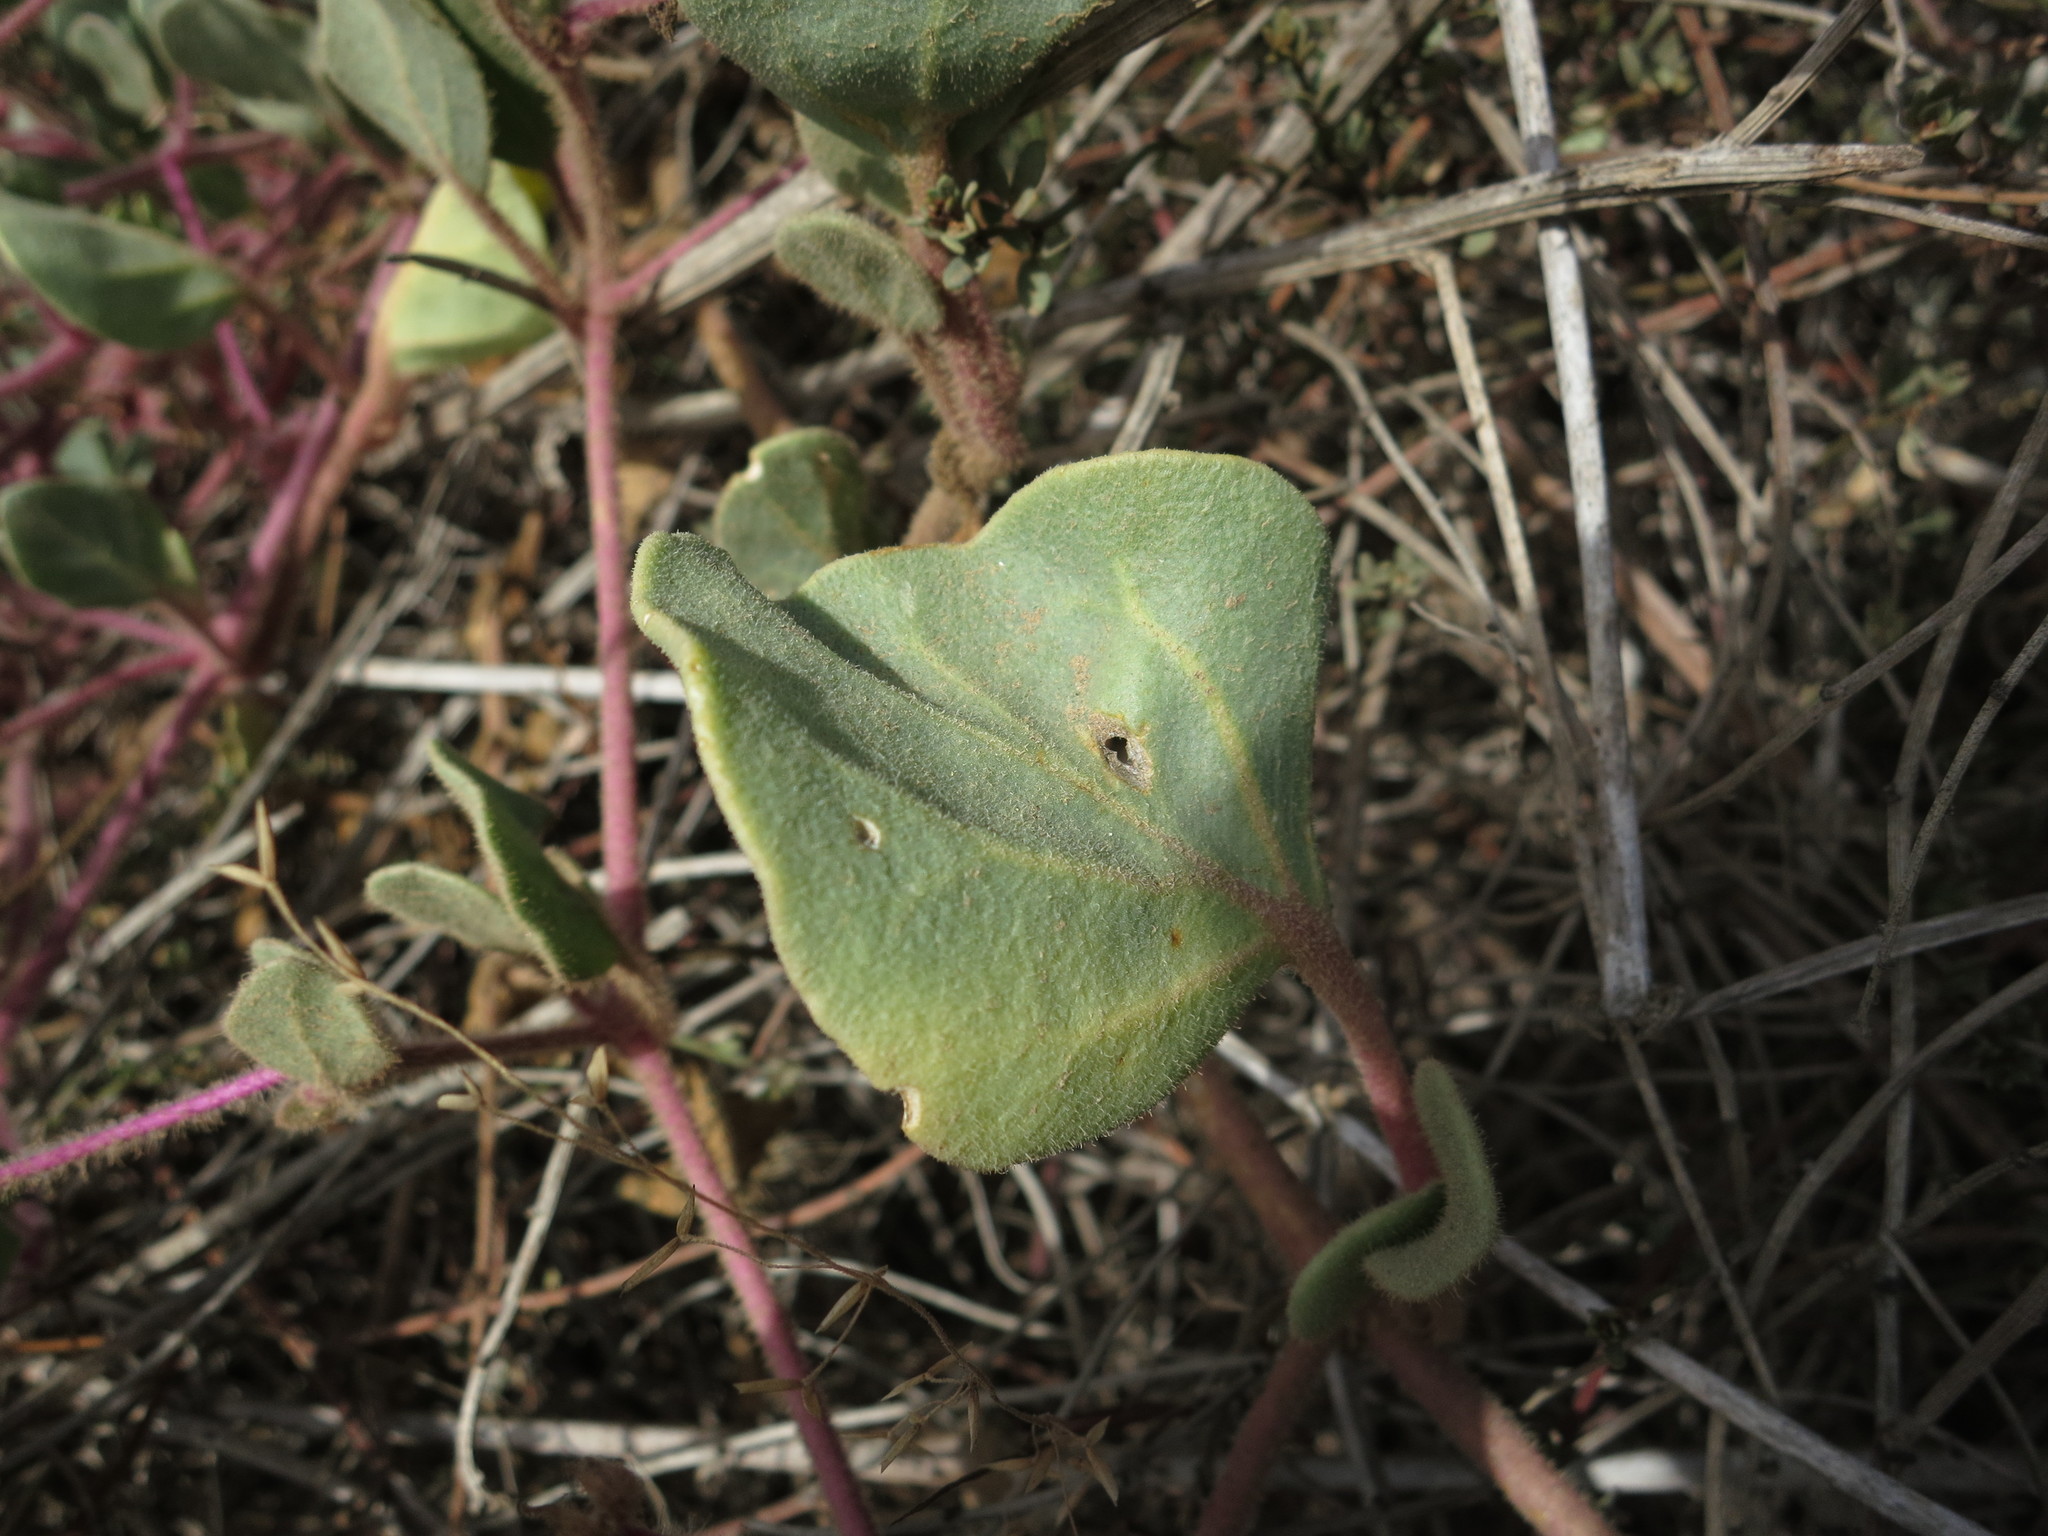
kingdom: Plantae
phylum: Tracheophyta
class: Magnoliopsida
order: Caryophyllales
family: Nyctaginaceae
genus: Abronia
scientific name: Abronia umbellata
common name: Sand-verbena
